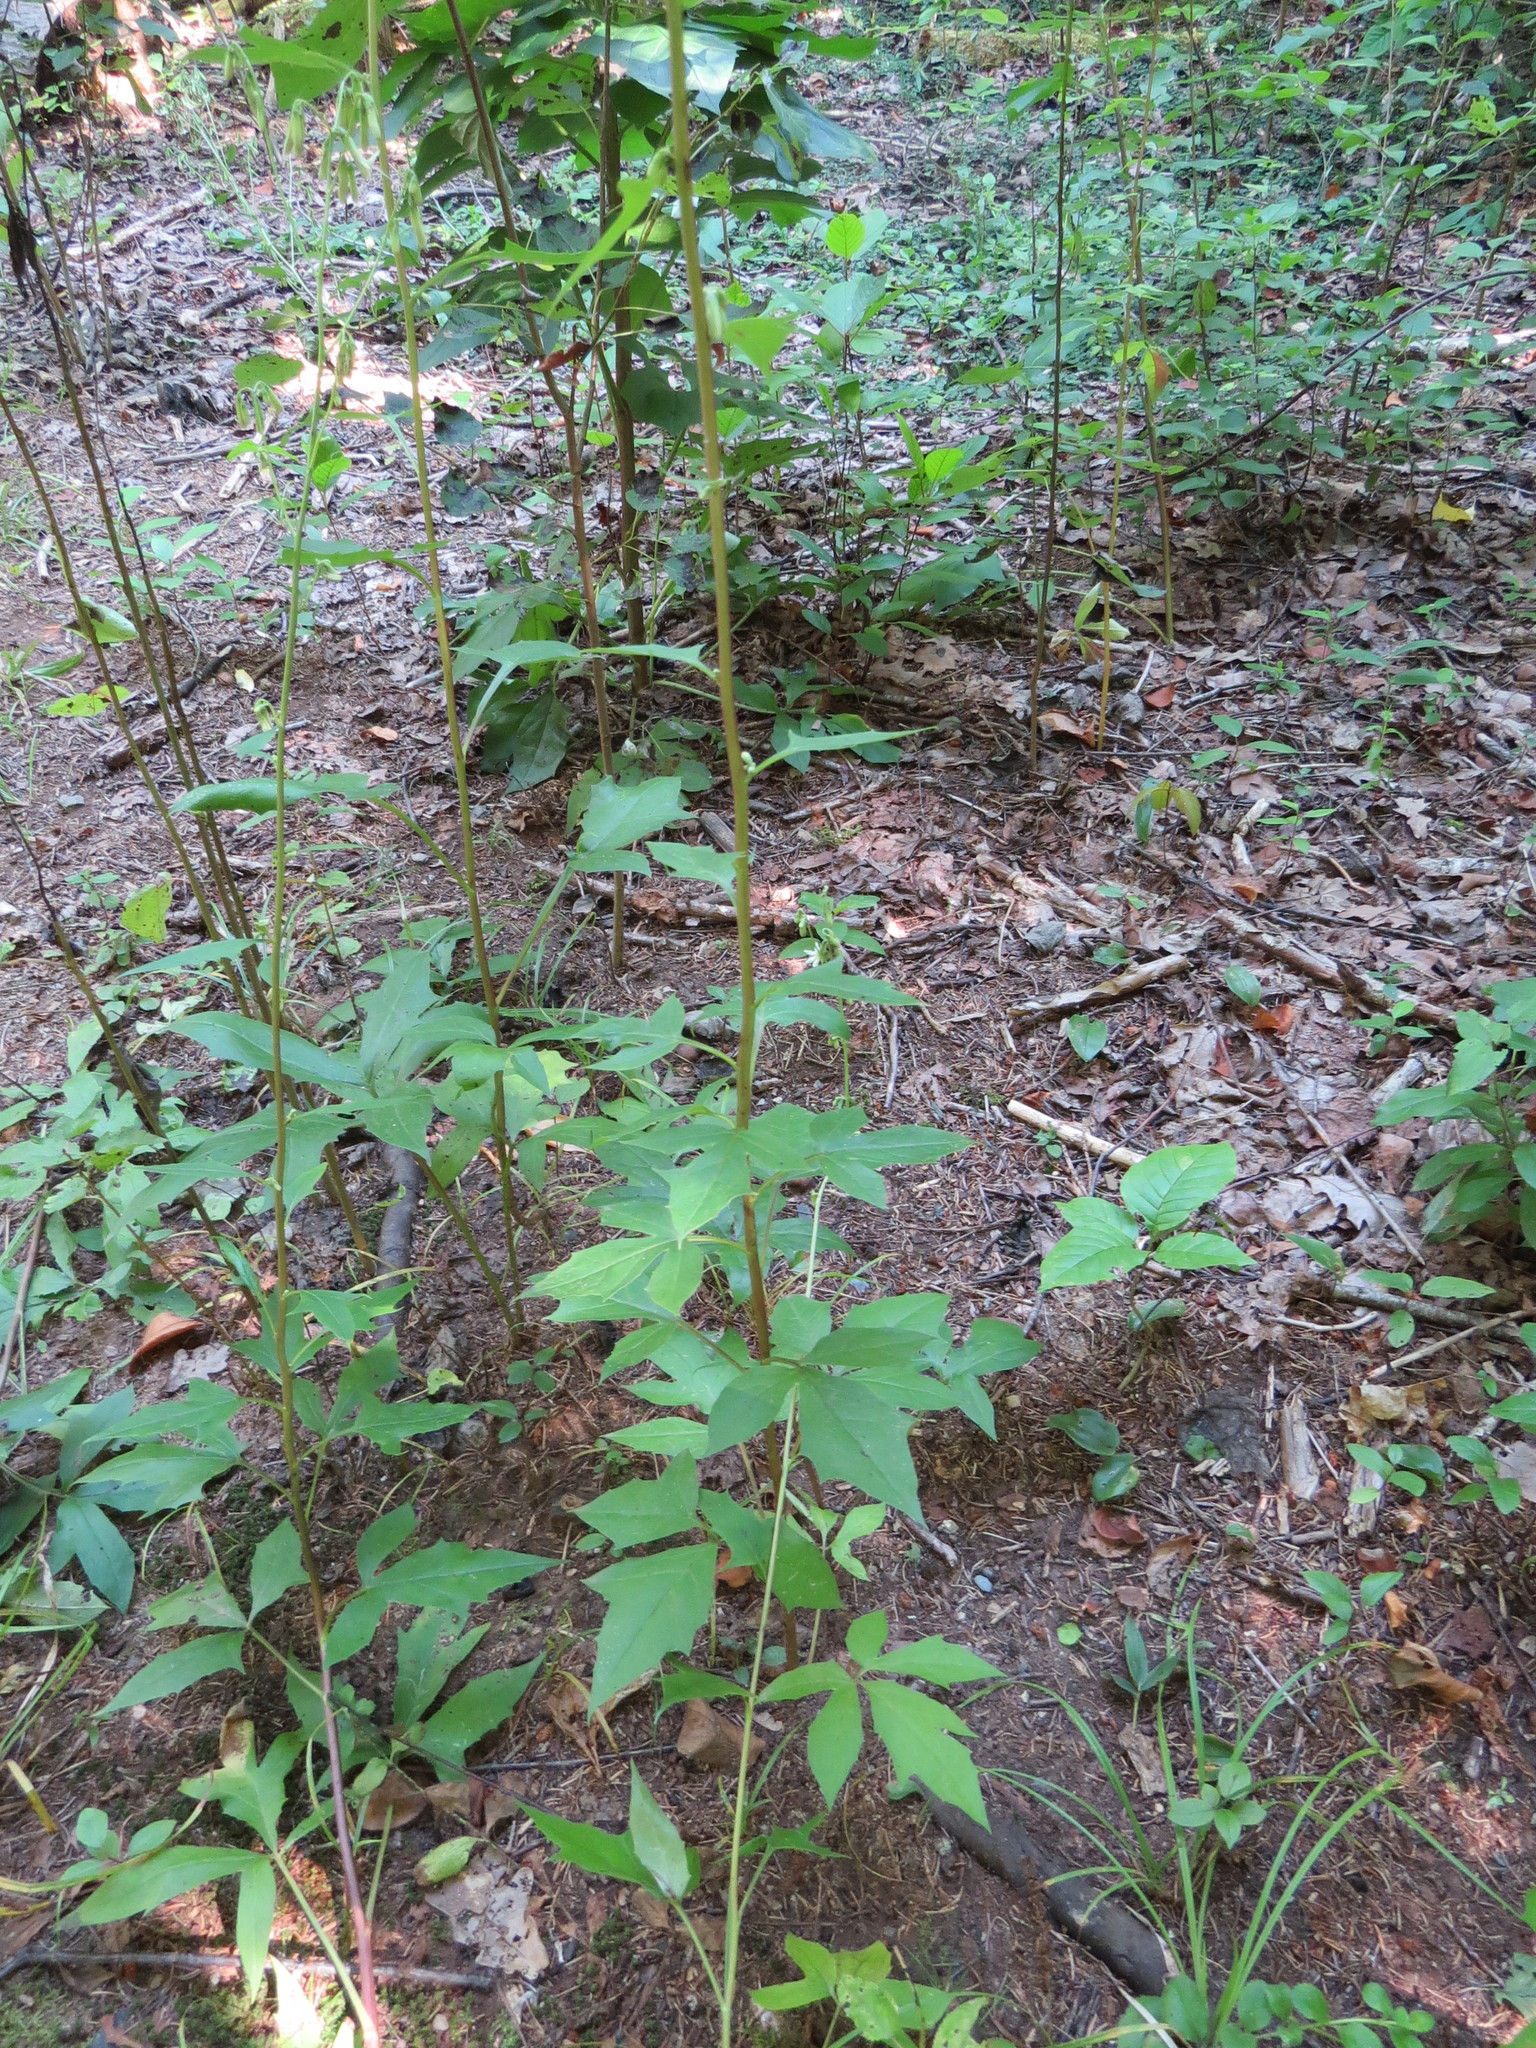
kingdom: Plantae
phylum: Tracheophyta
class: Magnoliopsida
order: Asterales
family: Asteraceae
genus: Nabalus
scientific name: Nabalus trifoliolatus
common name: Gall-of-the-earth
